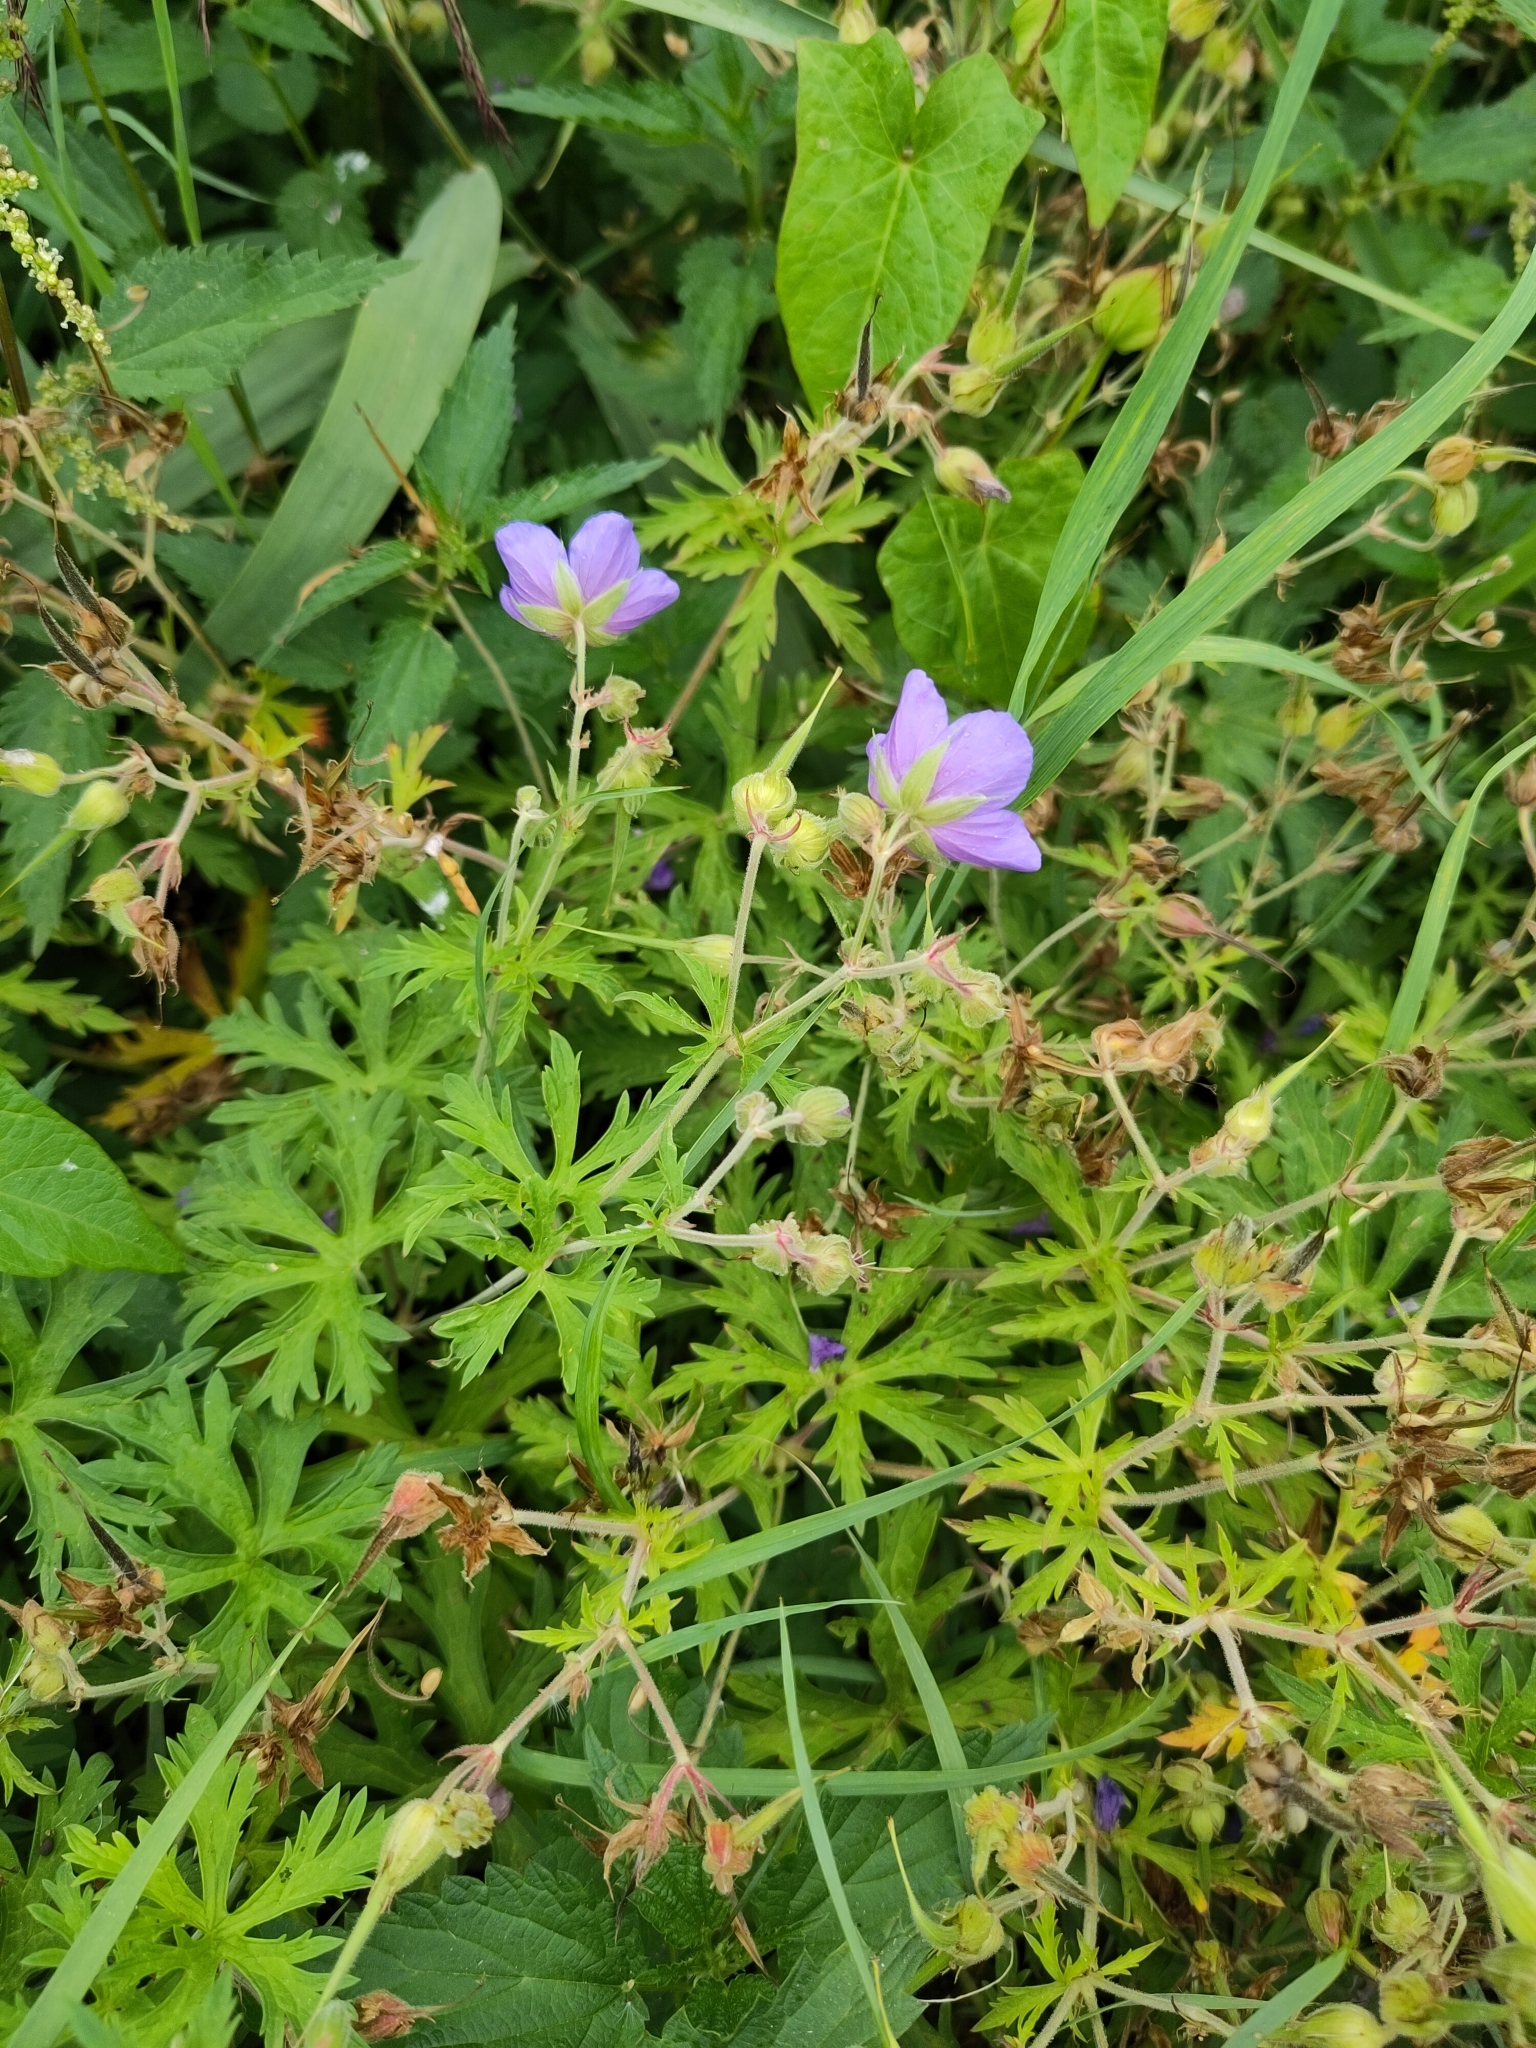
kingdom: Plantae
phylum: Tracheophyta
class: Magnoliopsida
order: Geraniales
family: Geraniaceae
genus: Geranium
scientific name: Geranium pratense
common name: Meadow crane's-bill
